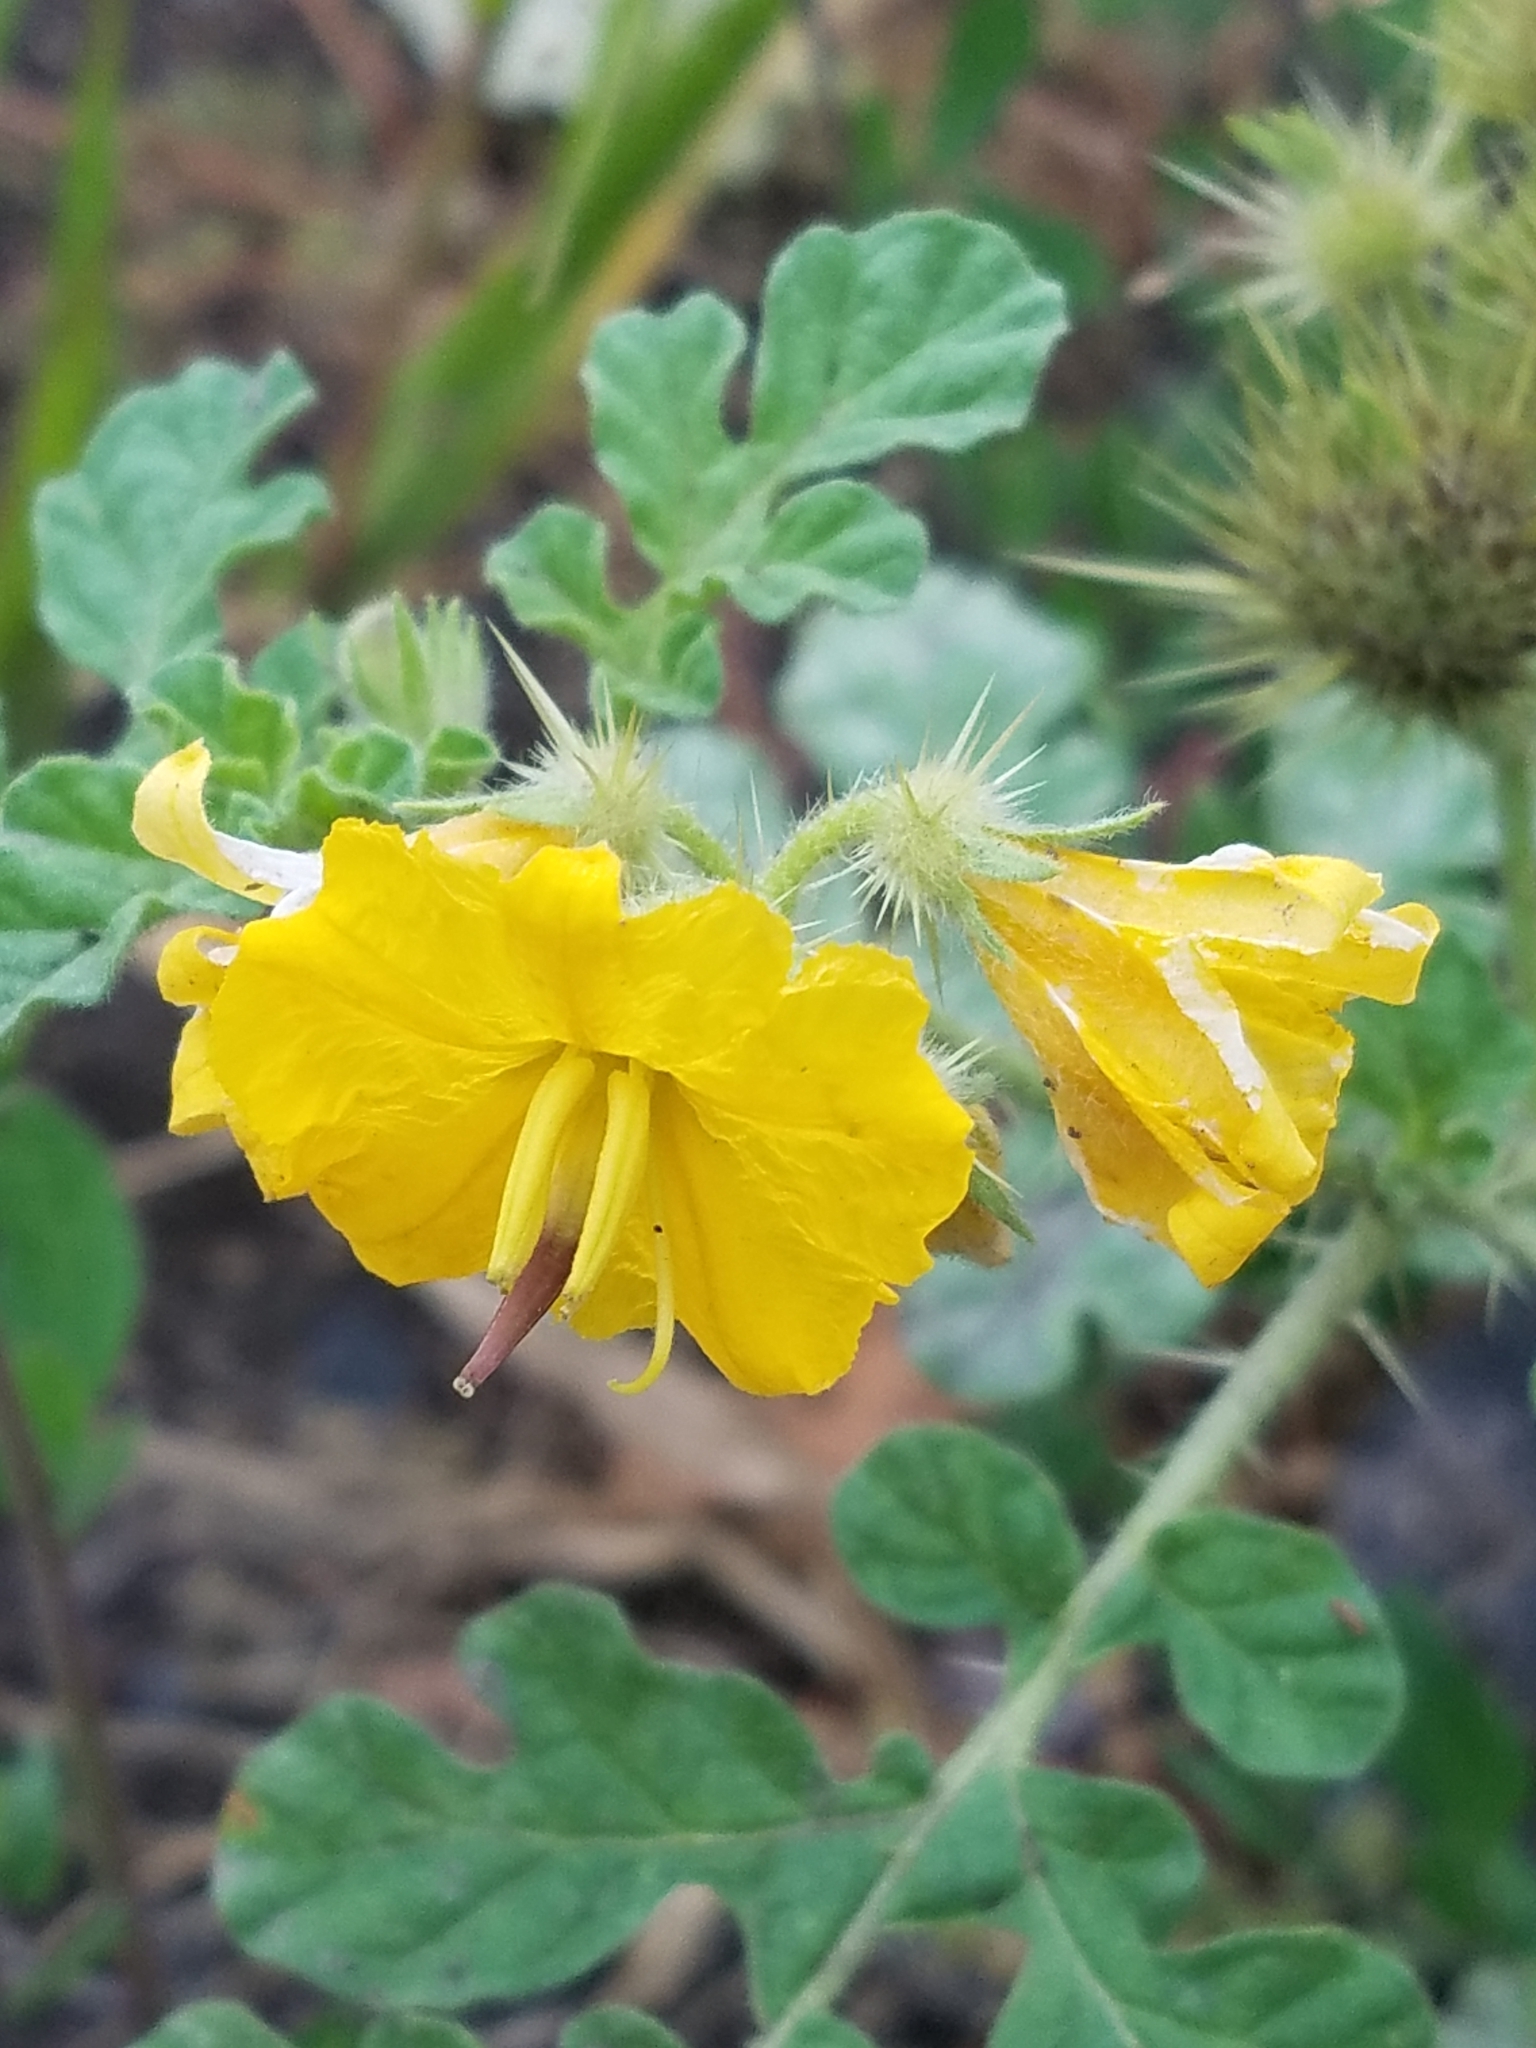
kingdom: Plantae
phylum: Tracheophyta
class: Magnoliopsida
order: Solanales
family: Solanaceae
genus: Solanum
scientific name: Solanum angustifolium
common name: Buffalobur nightshade
